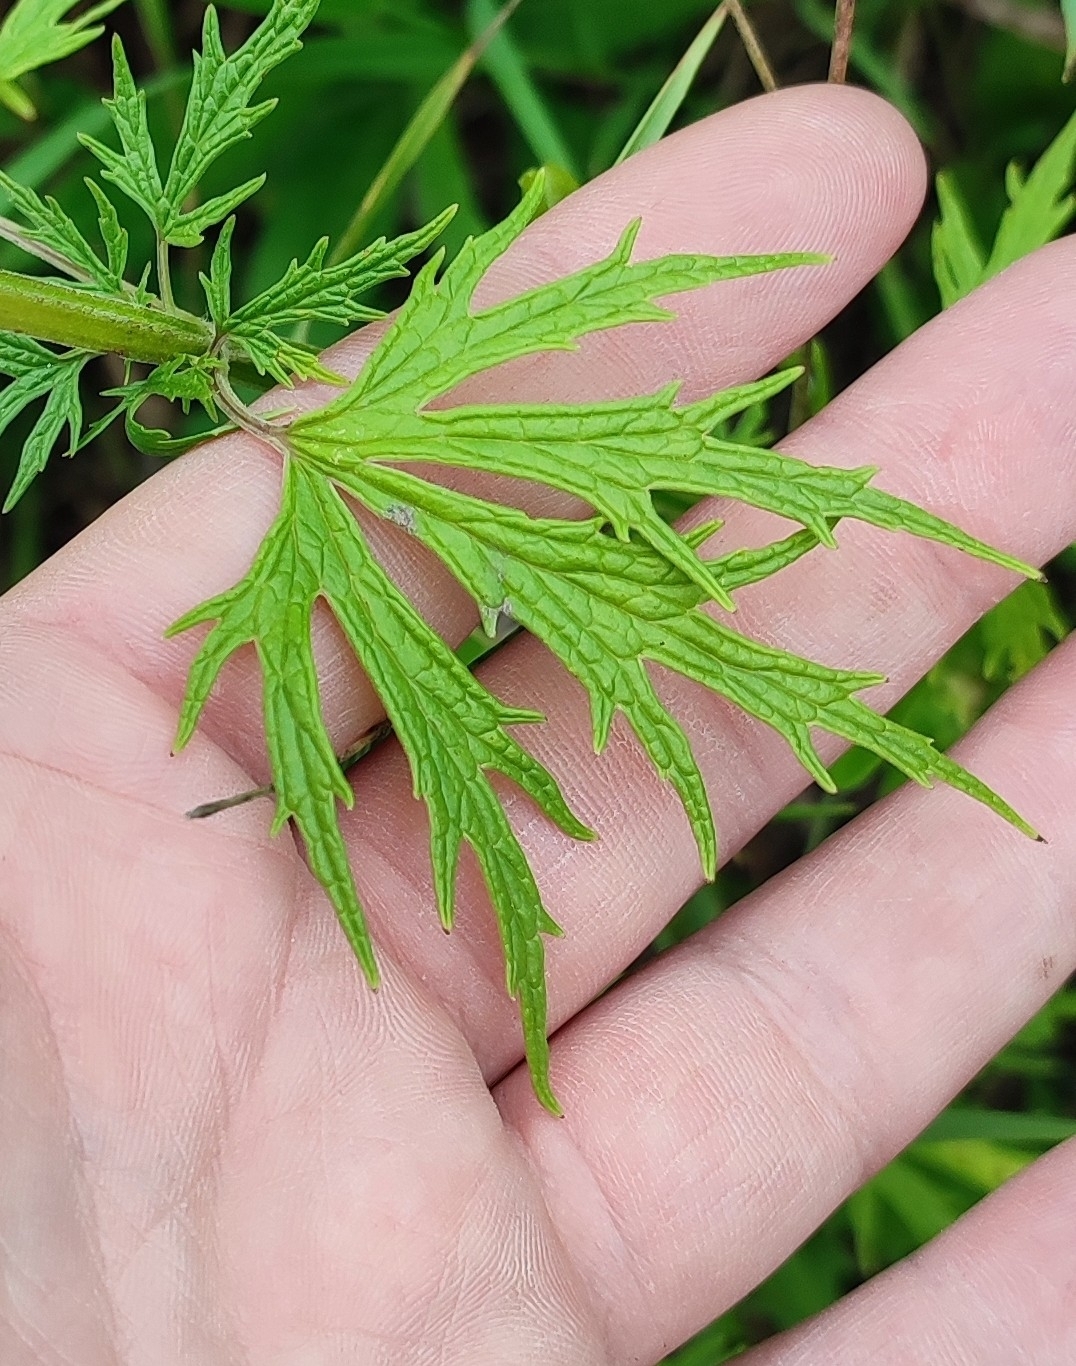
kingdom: Plantae
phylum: Tracheophyta
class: Magnoliopsida
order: Lamiales
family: Lamiaceae
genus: Leonurus
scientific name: Leonurus glaucescens
